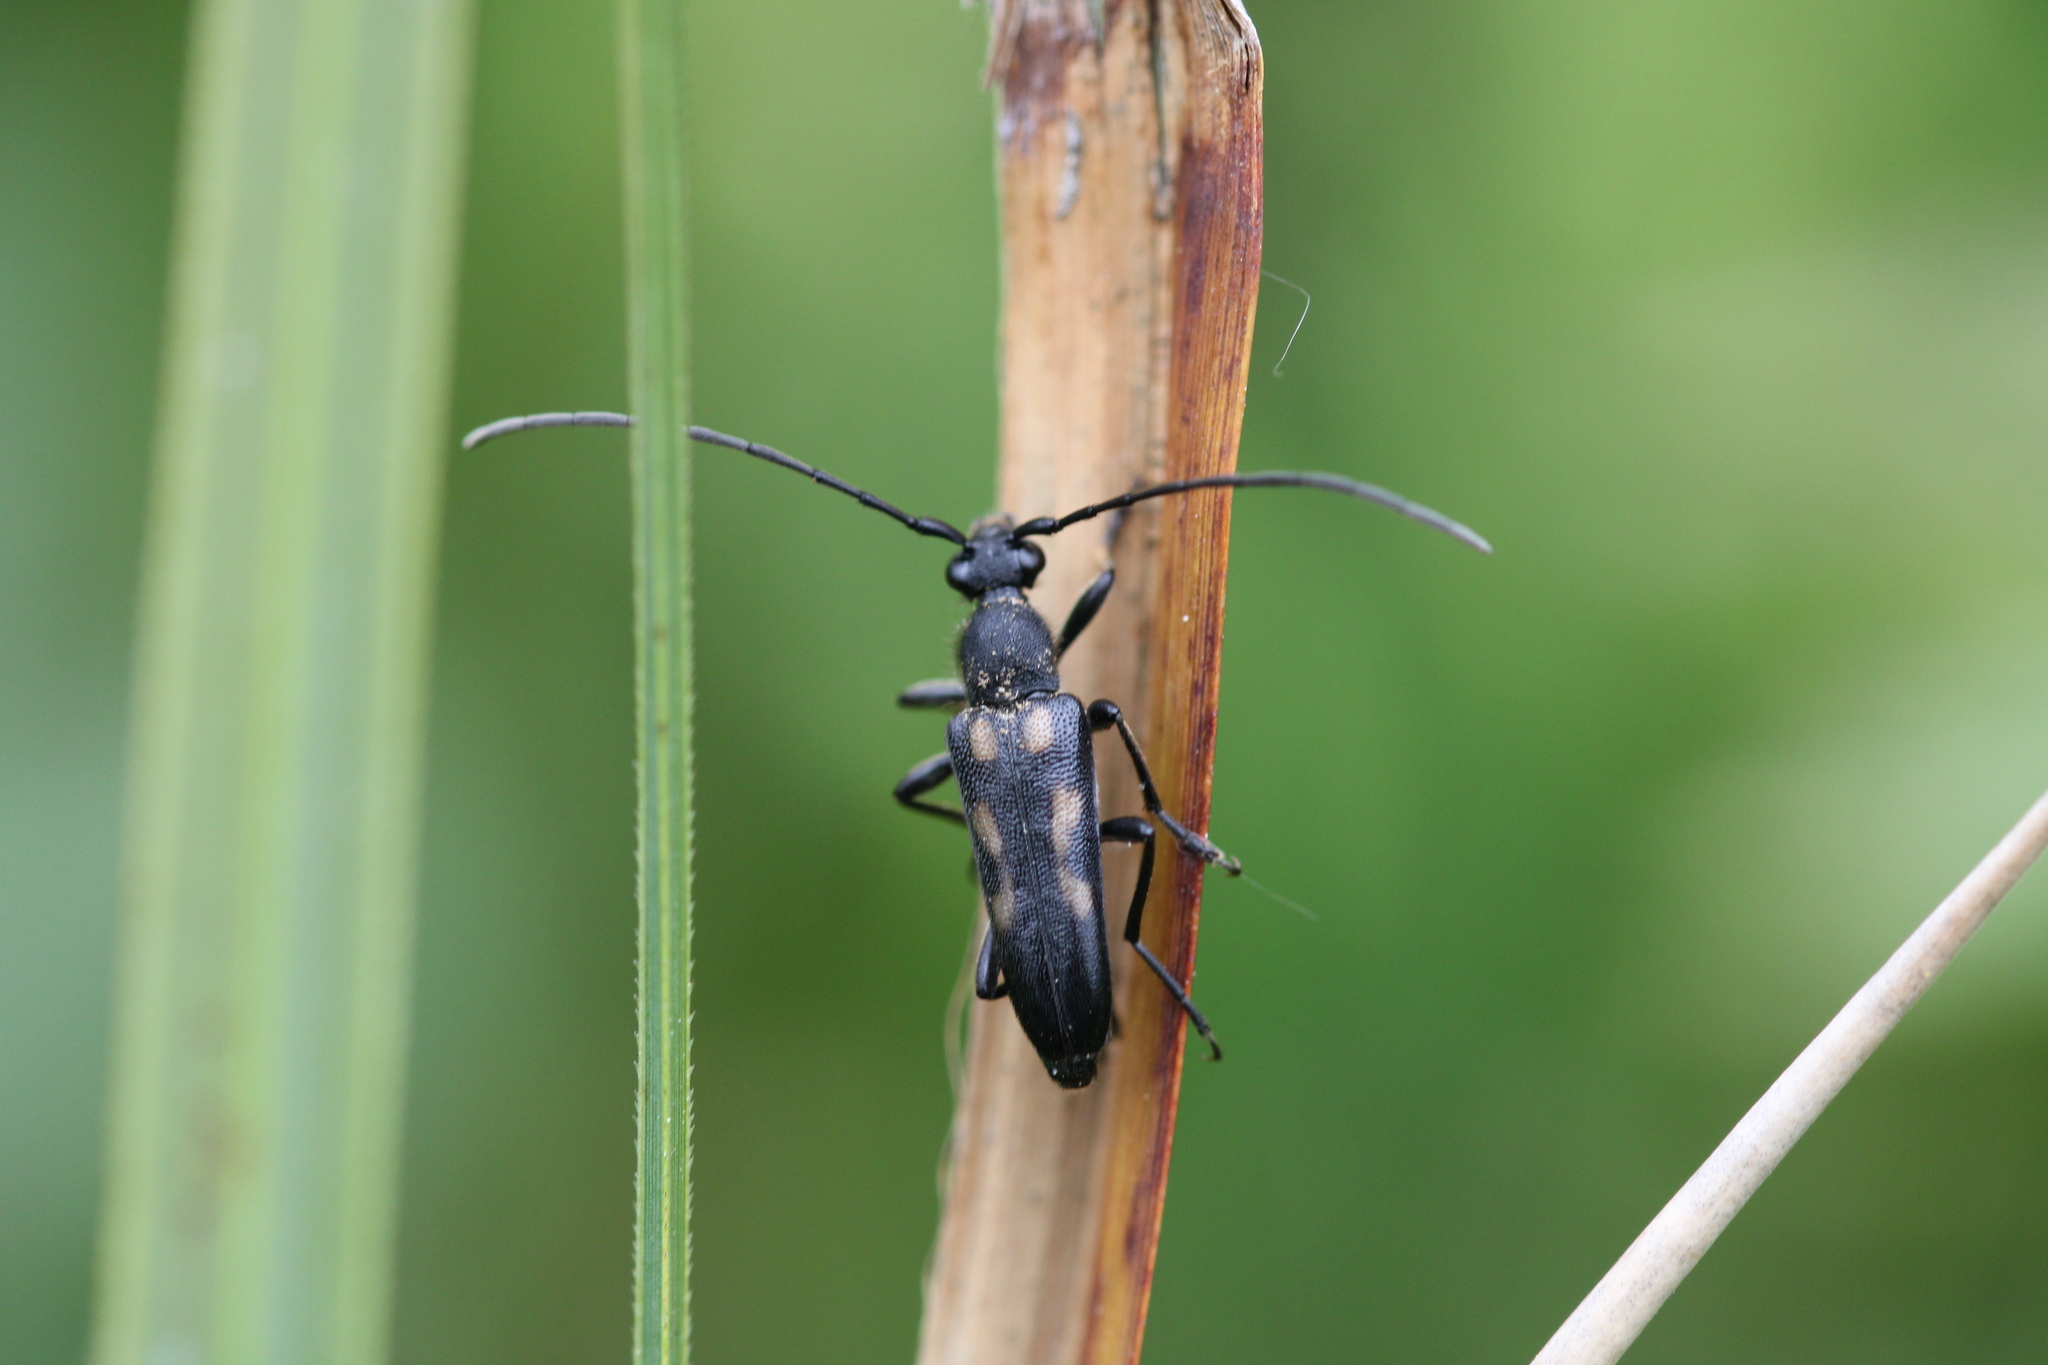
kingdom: Animalia
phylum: Arthropoda
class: Insecta
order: Coleoptera
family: Cerambycidae
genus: Anoplodera
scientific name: Anoplodera sexguttata
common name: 6 spotted longhorn
